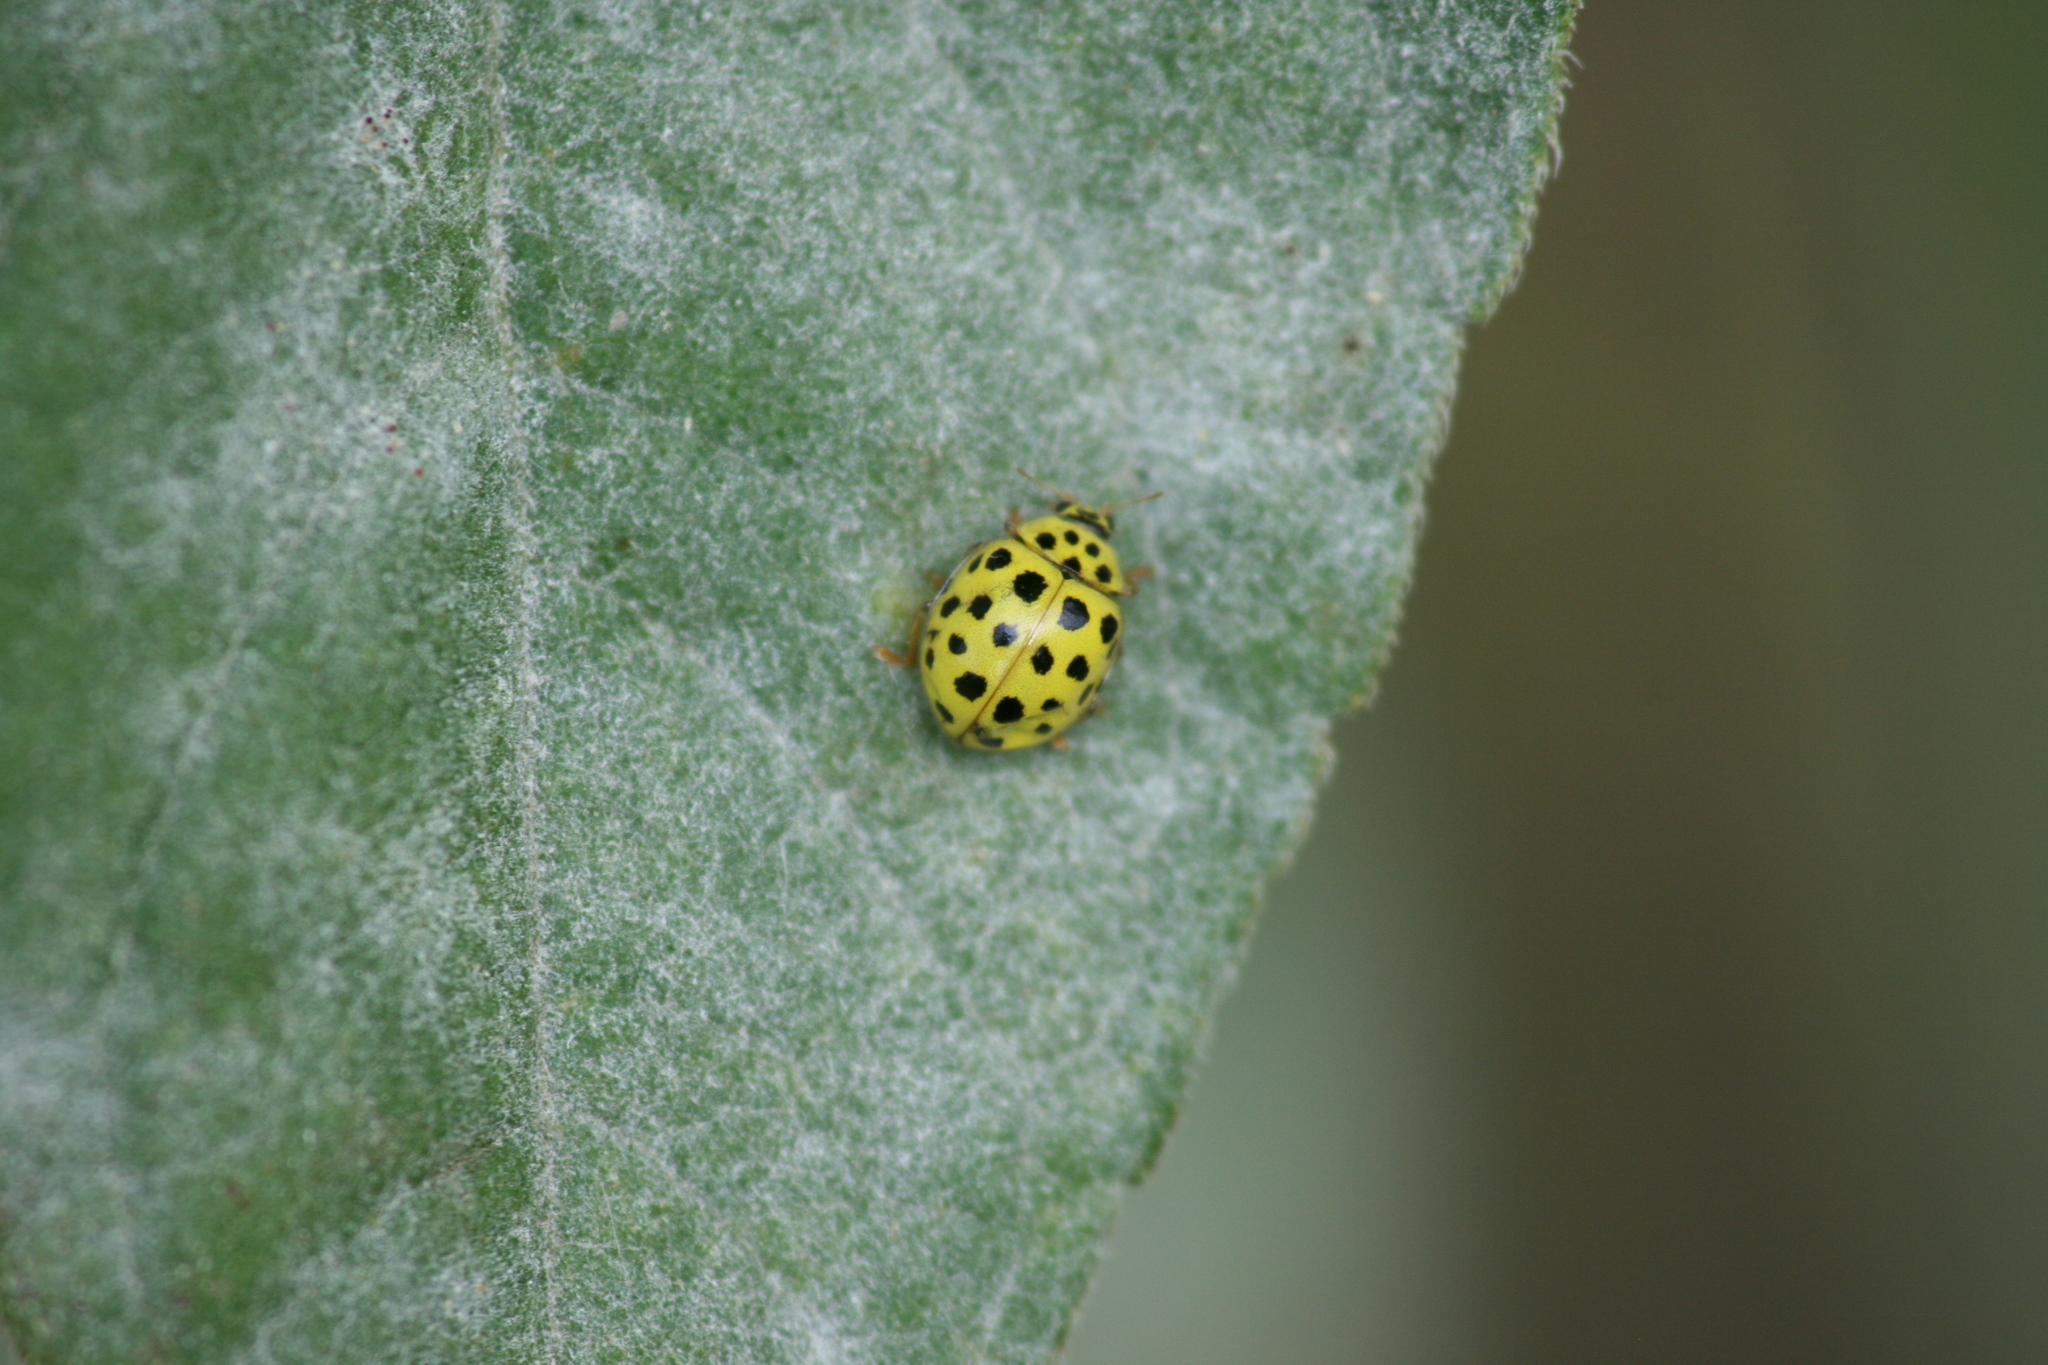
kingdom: Animalia
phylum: Arthropoda
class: Insecta
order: Coleoptera
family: Coccinellidae
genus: Psyllobora
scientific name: Psyllobora vigintiduopunctata
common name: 22-spot ladybird
